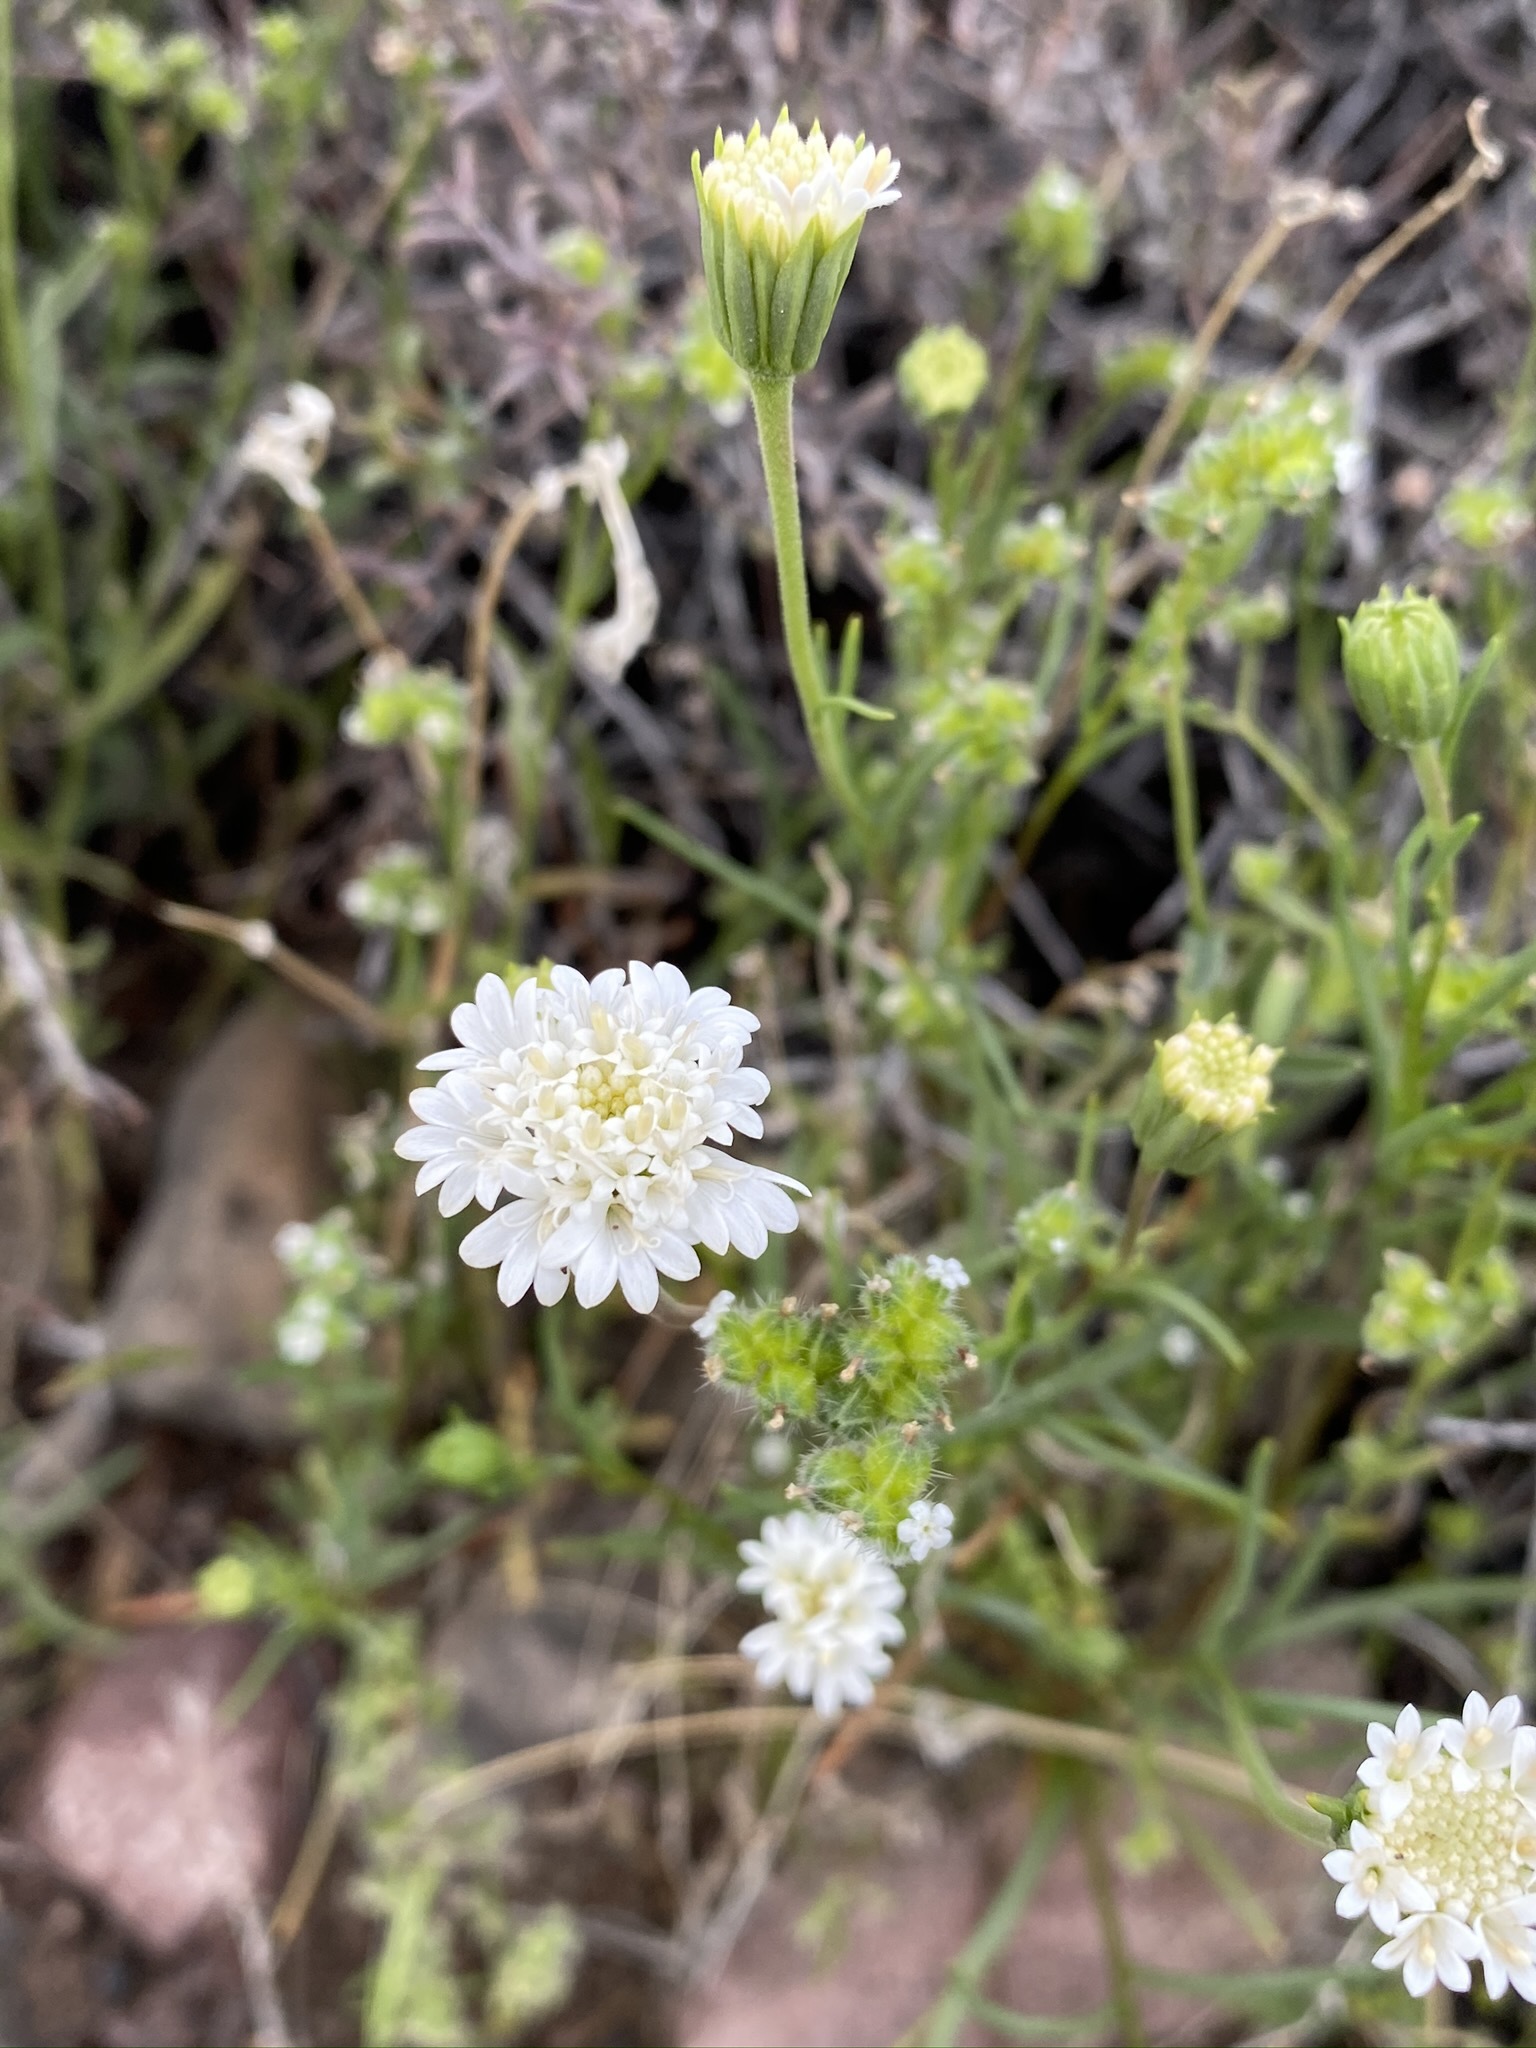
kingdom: Plantae
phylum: Tracheophyta
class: Magnoliopsida
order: Asterales
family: Asteraceae
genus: Chaenactis
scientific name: Chaenactis fremontii
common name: Fremont pincushion
